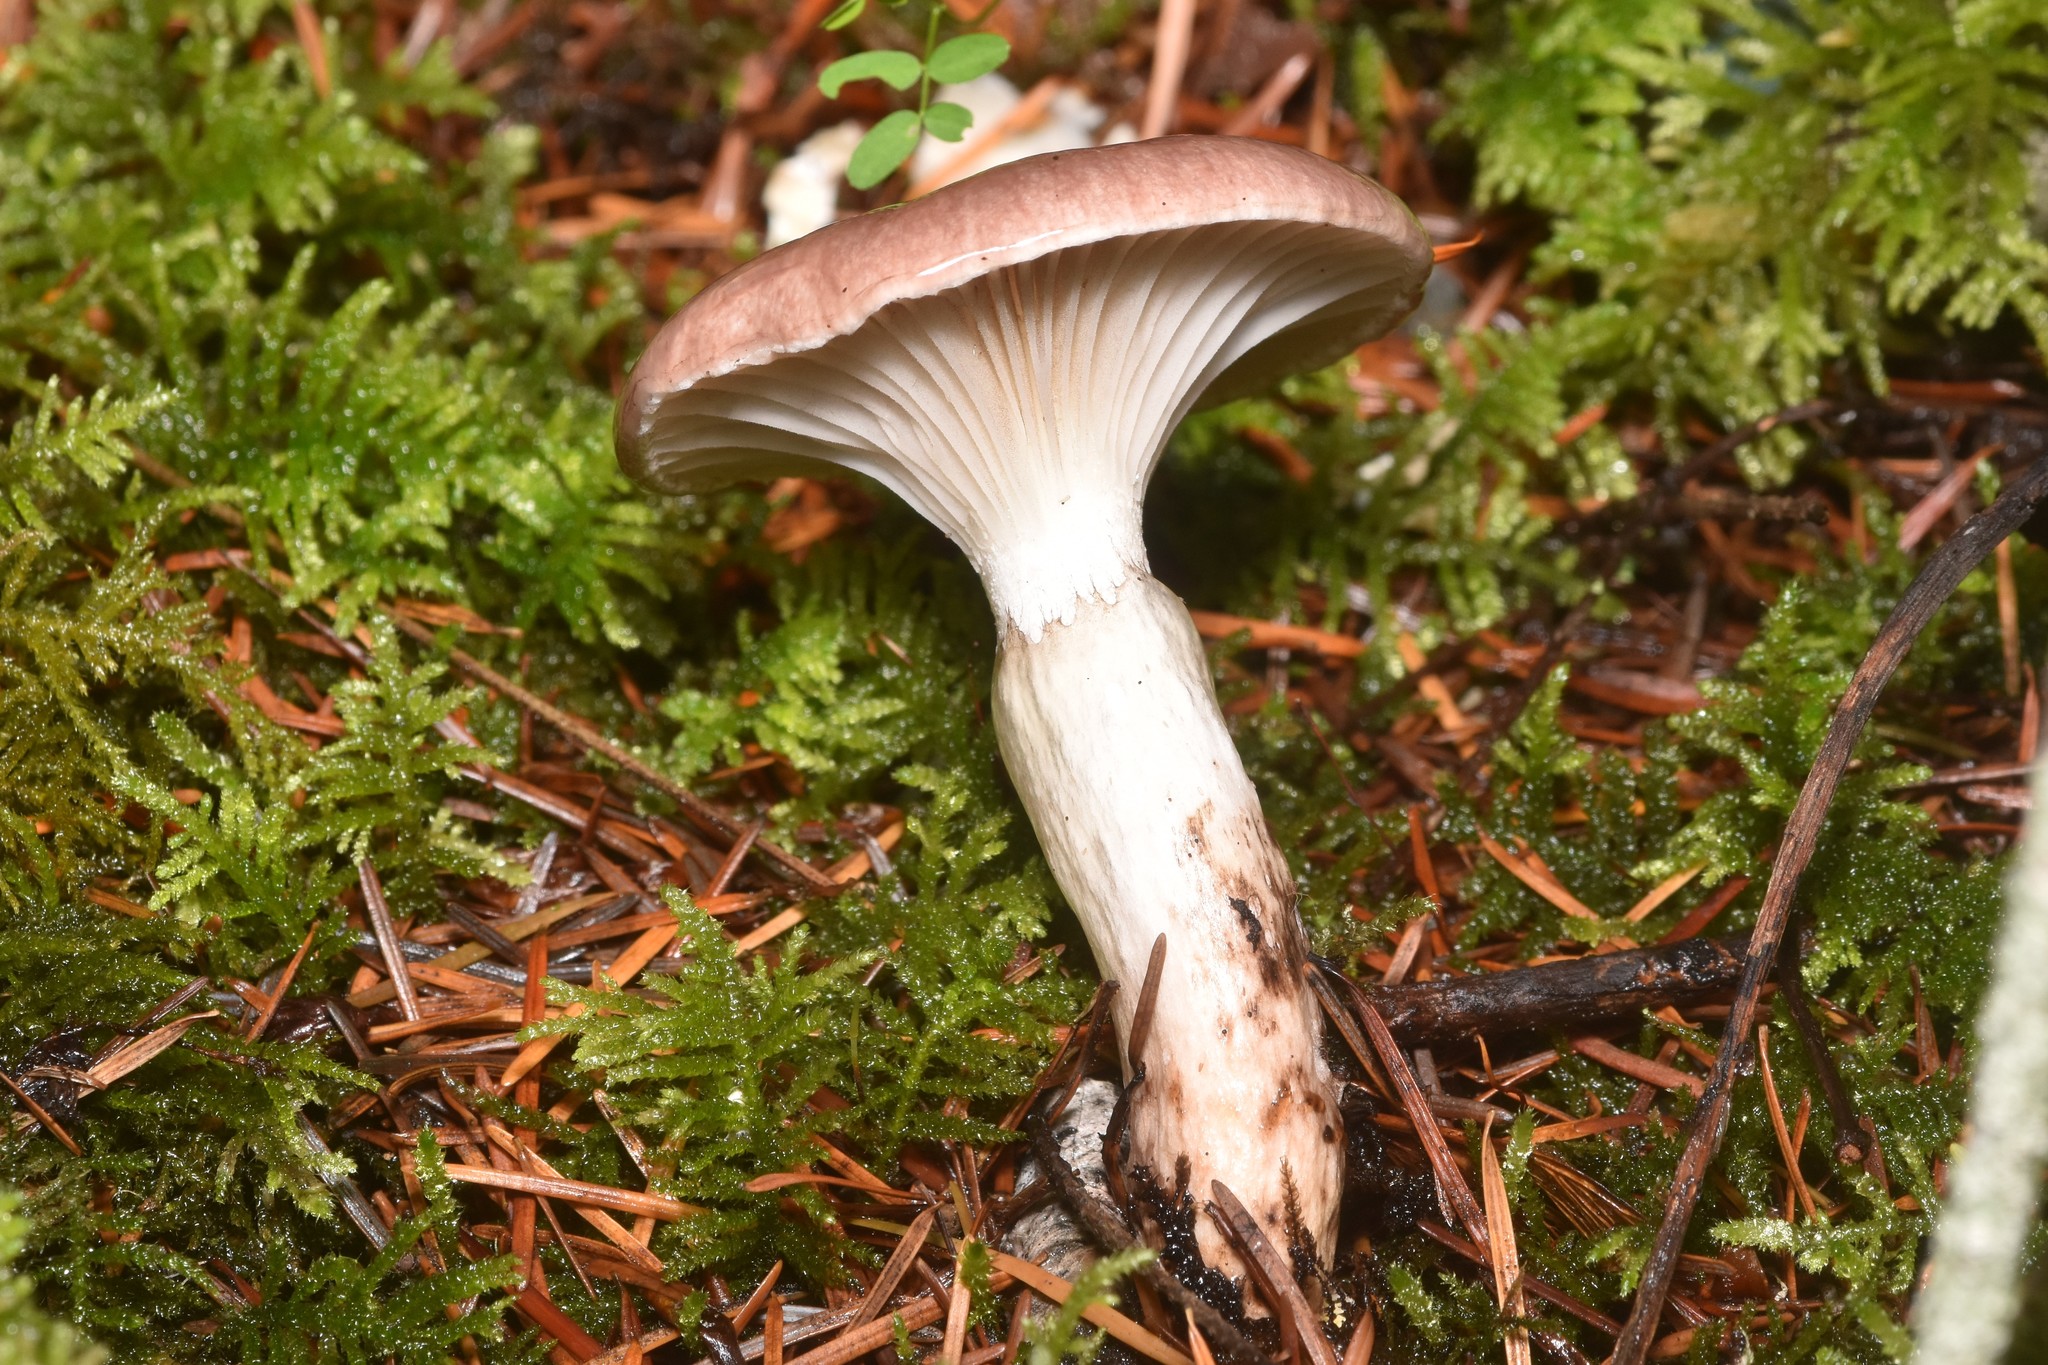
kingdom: Fungi
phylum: Basidiomycota
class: Agaricomycetes
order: Boletales
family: Gomphidiaceae
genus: Gomphidius
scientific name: Gomphidius subroseus
